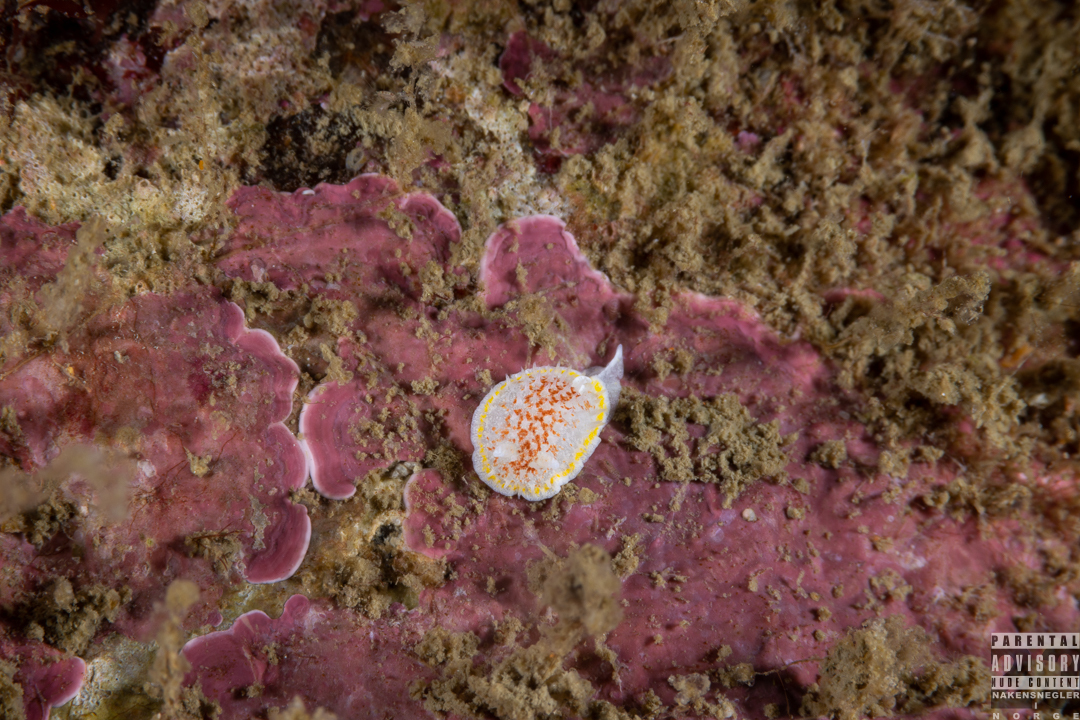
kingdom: Animalia
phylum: Mollusca
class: Gastropoda
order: Nudibranchia
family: Calycidorididae
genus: Diaphorodoris
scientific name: Diaphorodoris luteocincta
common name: Fried egg nudibranch
